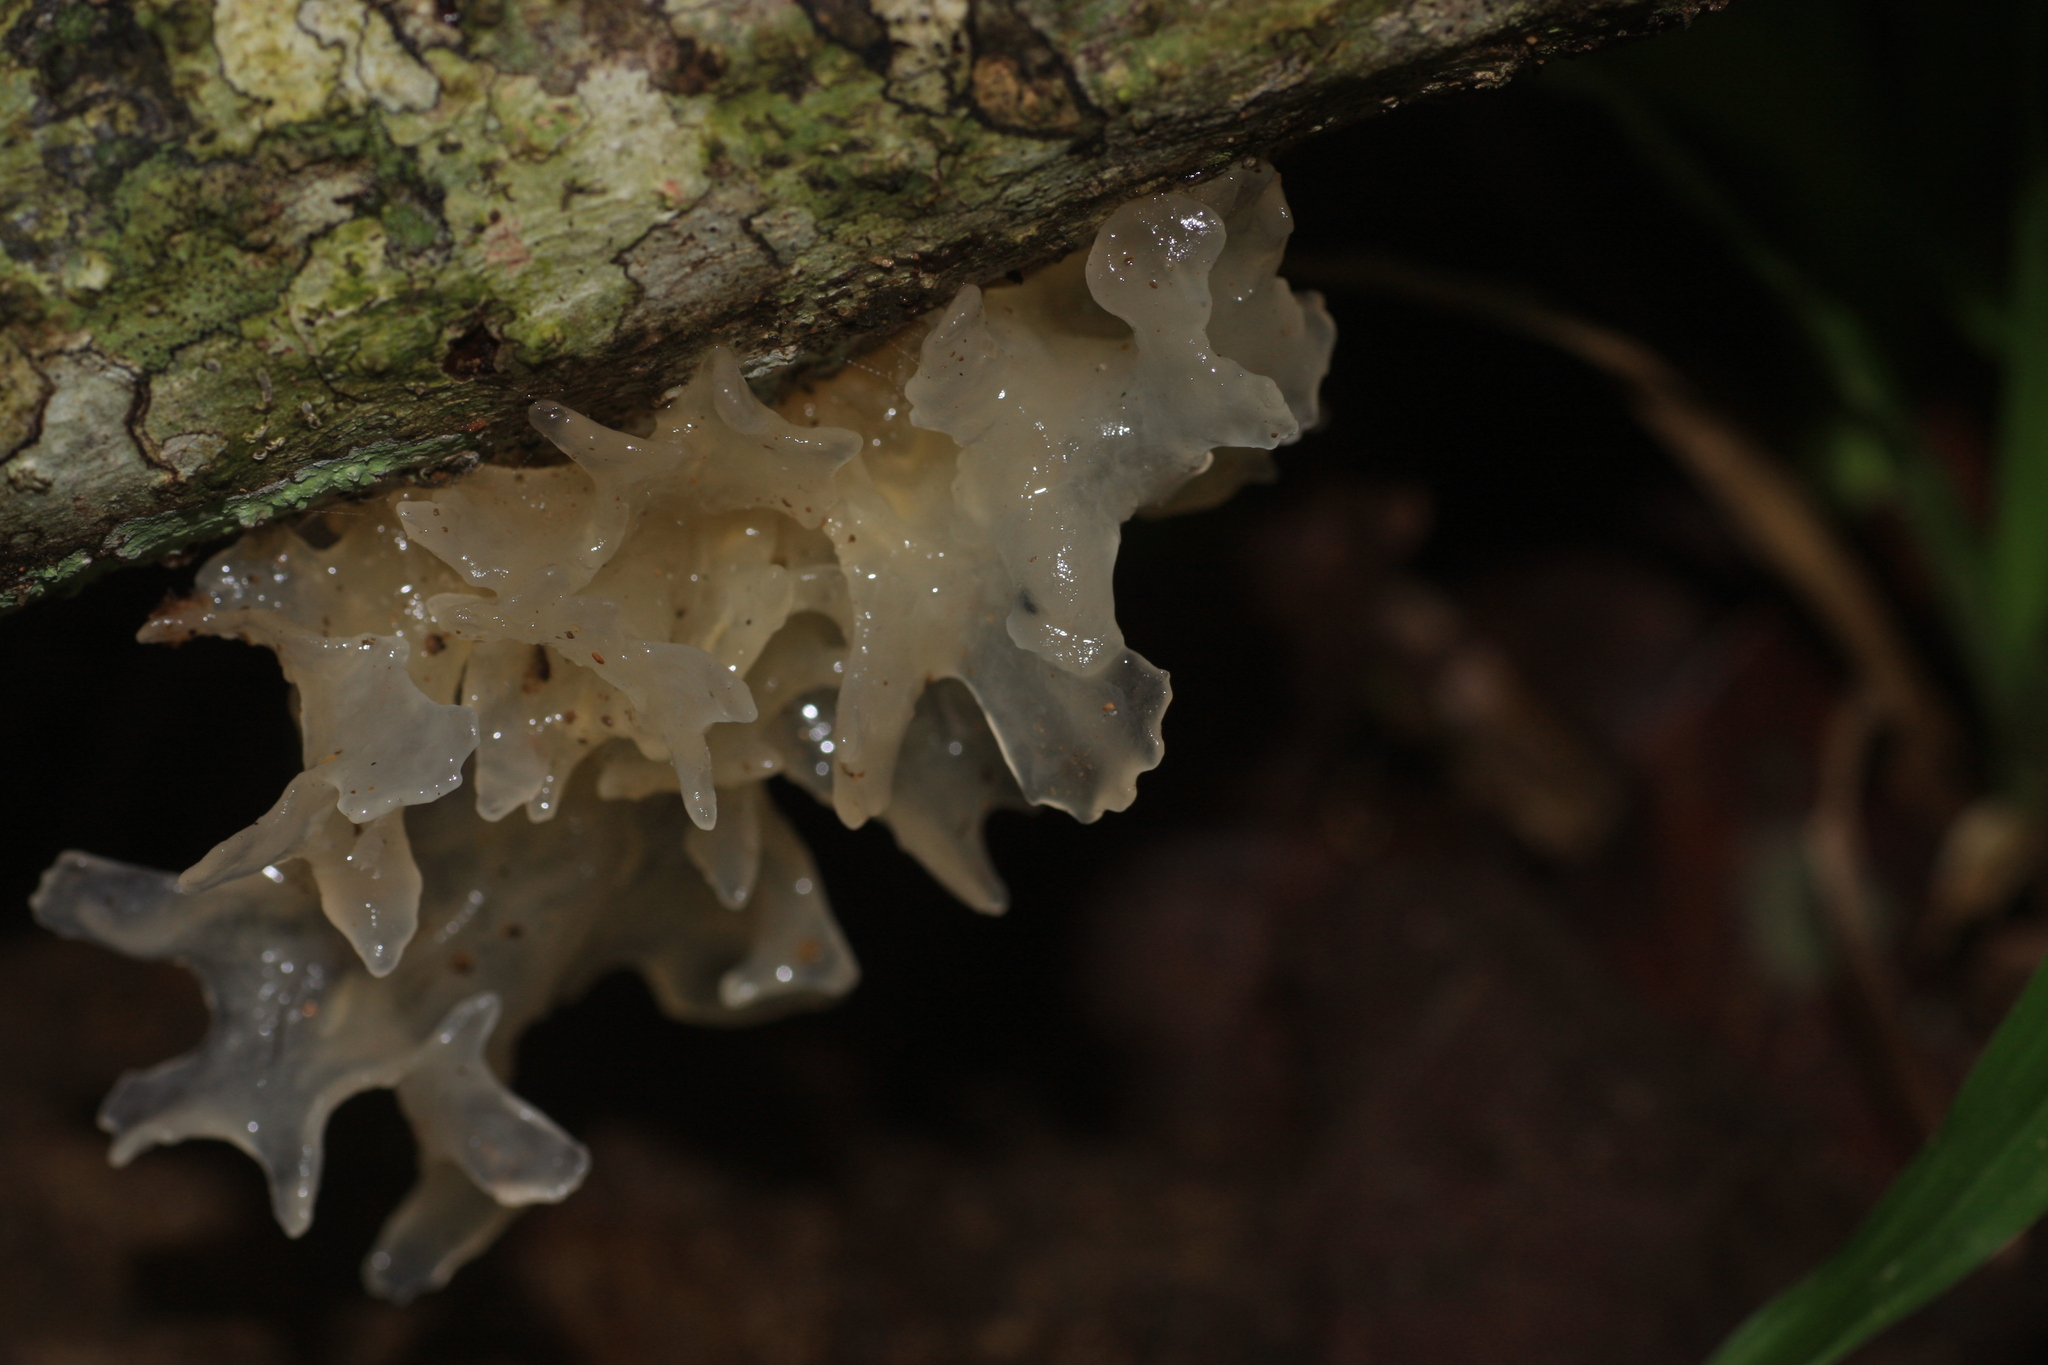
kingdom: Fungi
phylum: Basidiomycota
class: Tremellomycetes
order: Tremellales
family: Tremellaceae
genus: Tremella
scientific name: Tremella fuciformis
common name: Snow fungus
